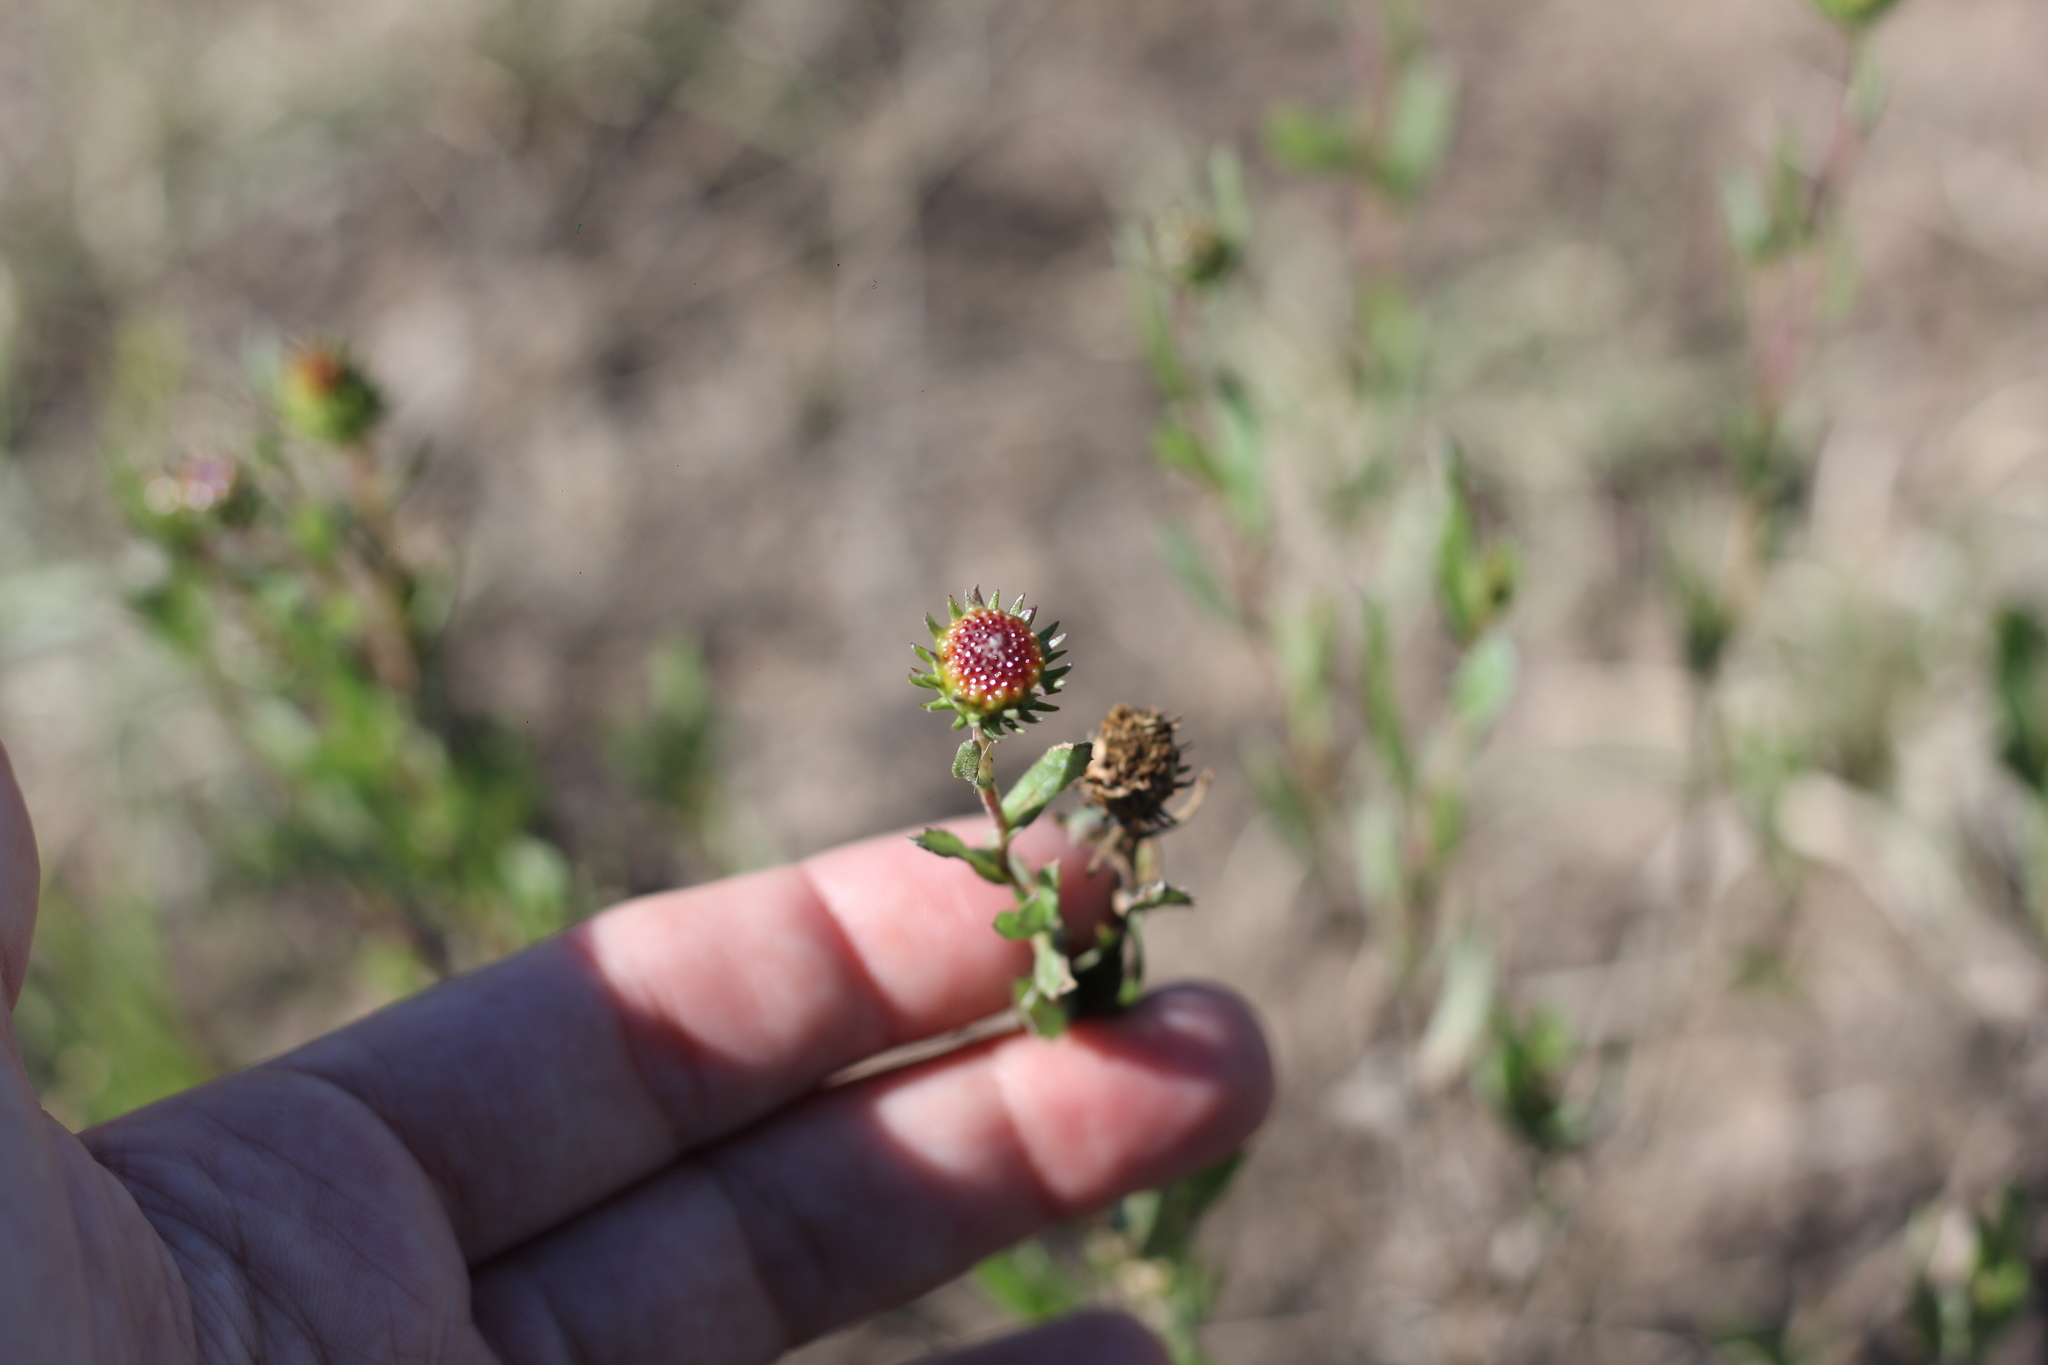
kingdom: Plantae
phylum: Tracheophyta
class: Magnoliopsida
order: Asterales
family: Asteraceae
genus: Grindelia
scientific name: Grindelia pulchella
